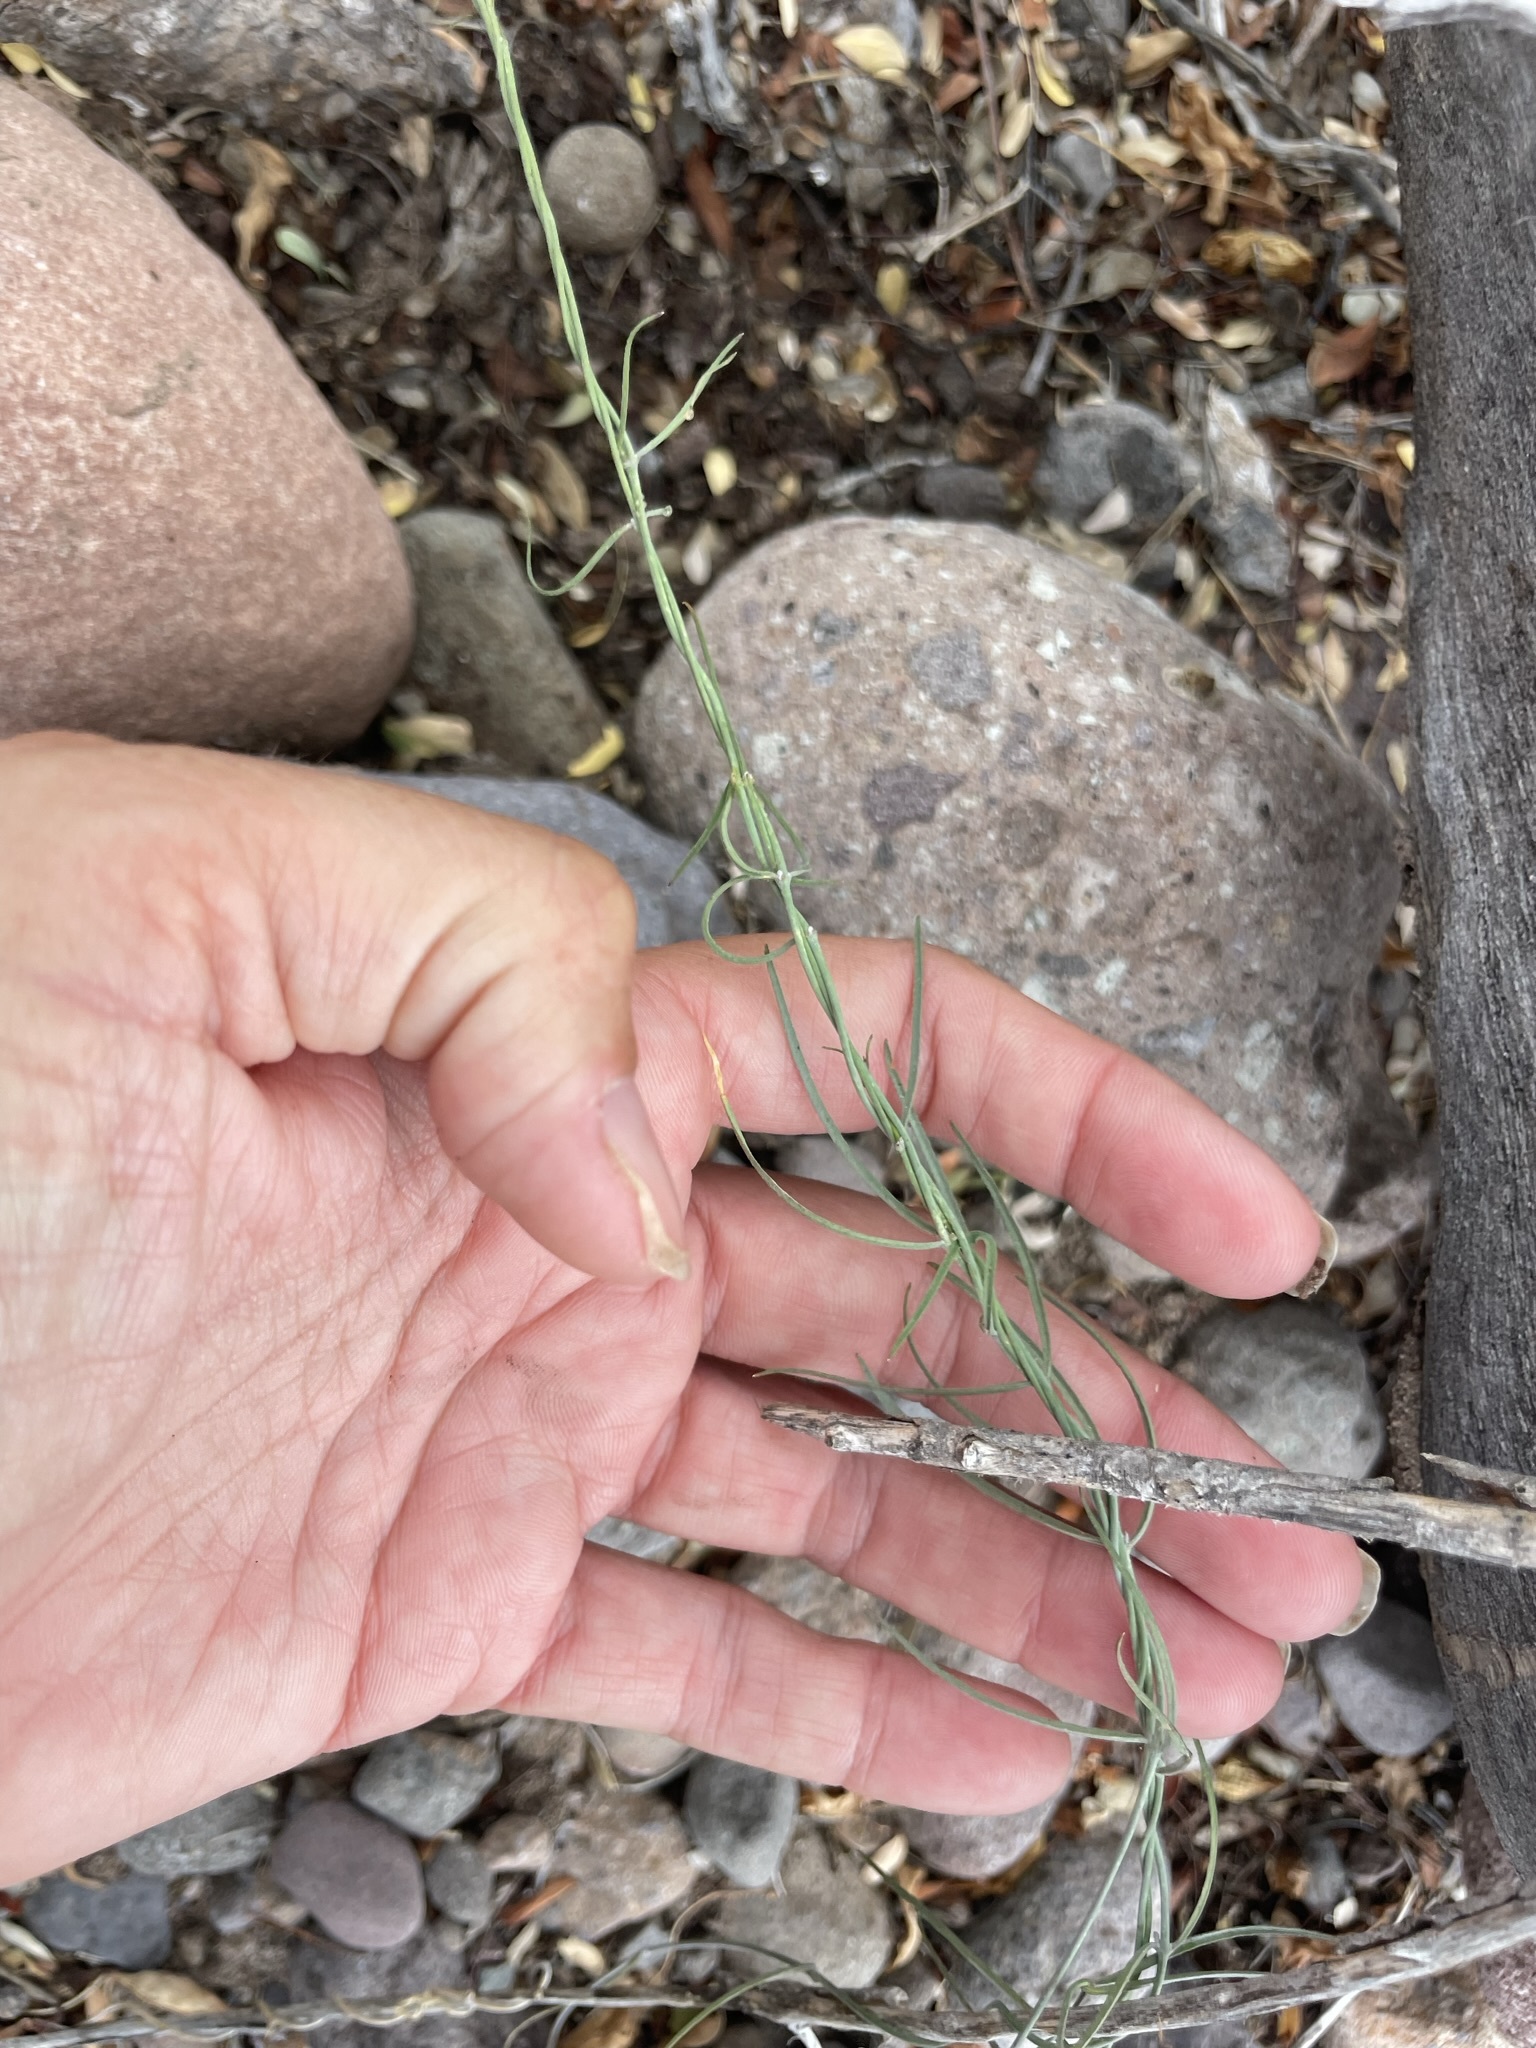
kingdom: Plantae
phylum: Tracheophyta
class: Magnoliopsida
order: Gentianales
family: Apocynaceae
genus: Funastrum
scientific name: Funastrum heterophyllum
